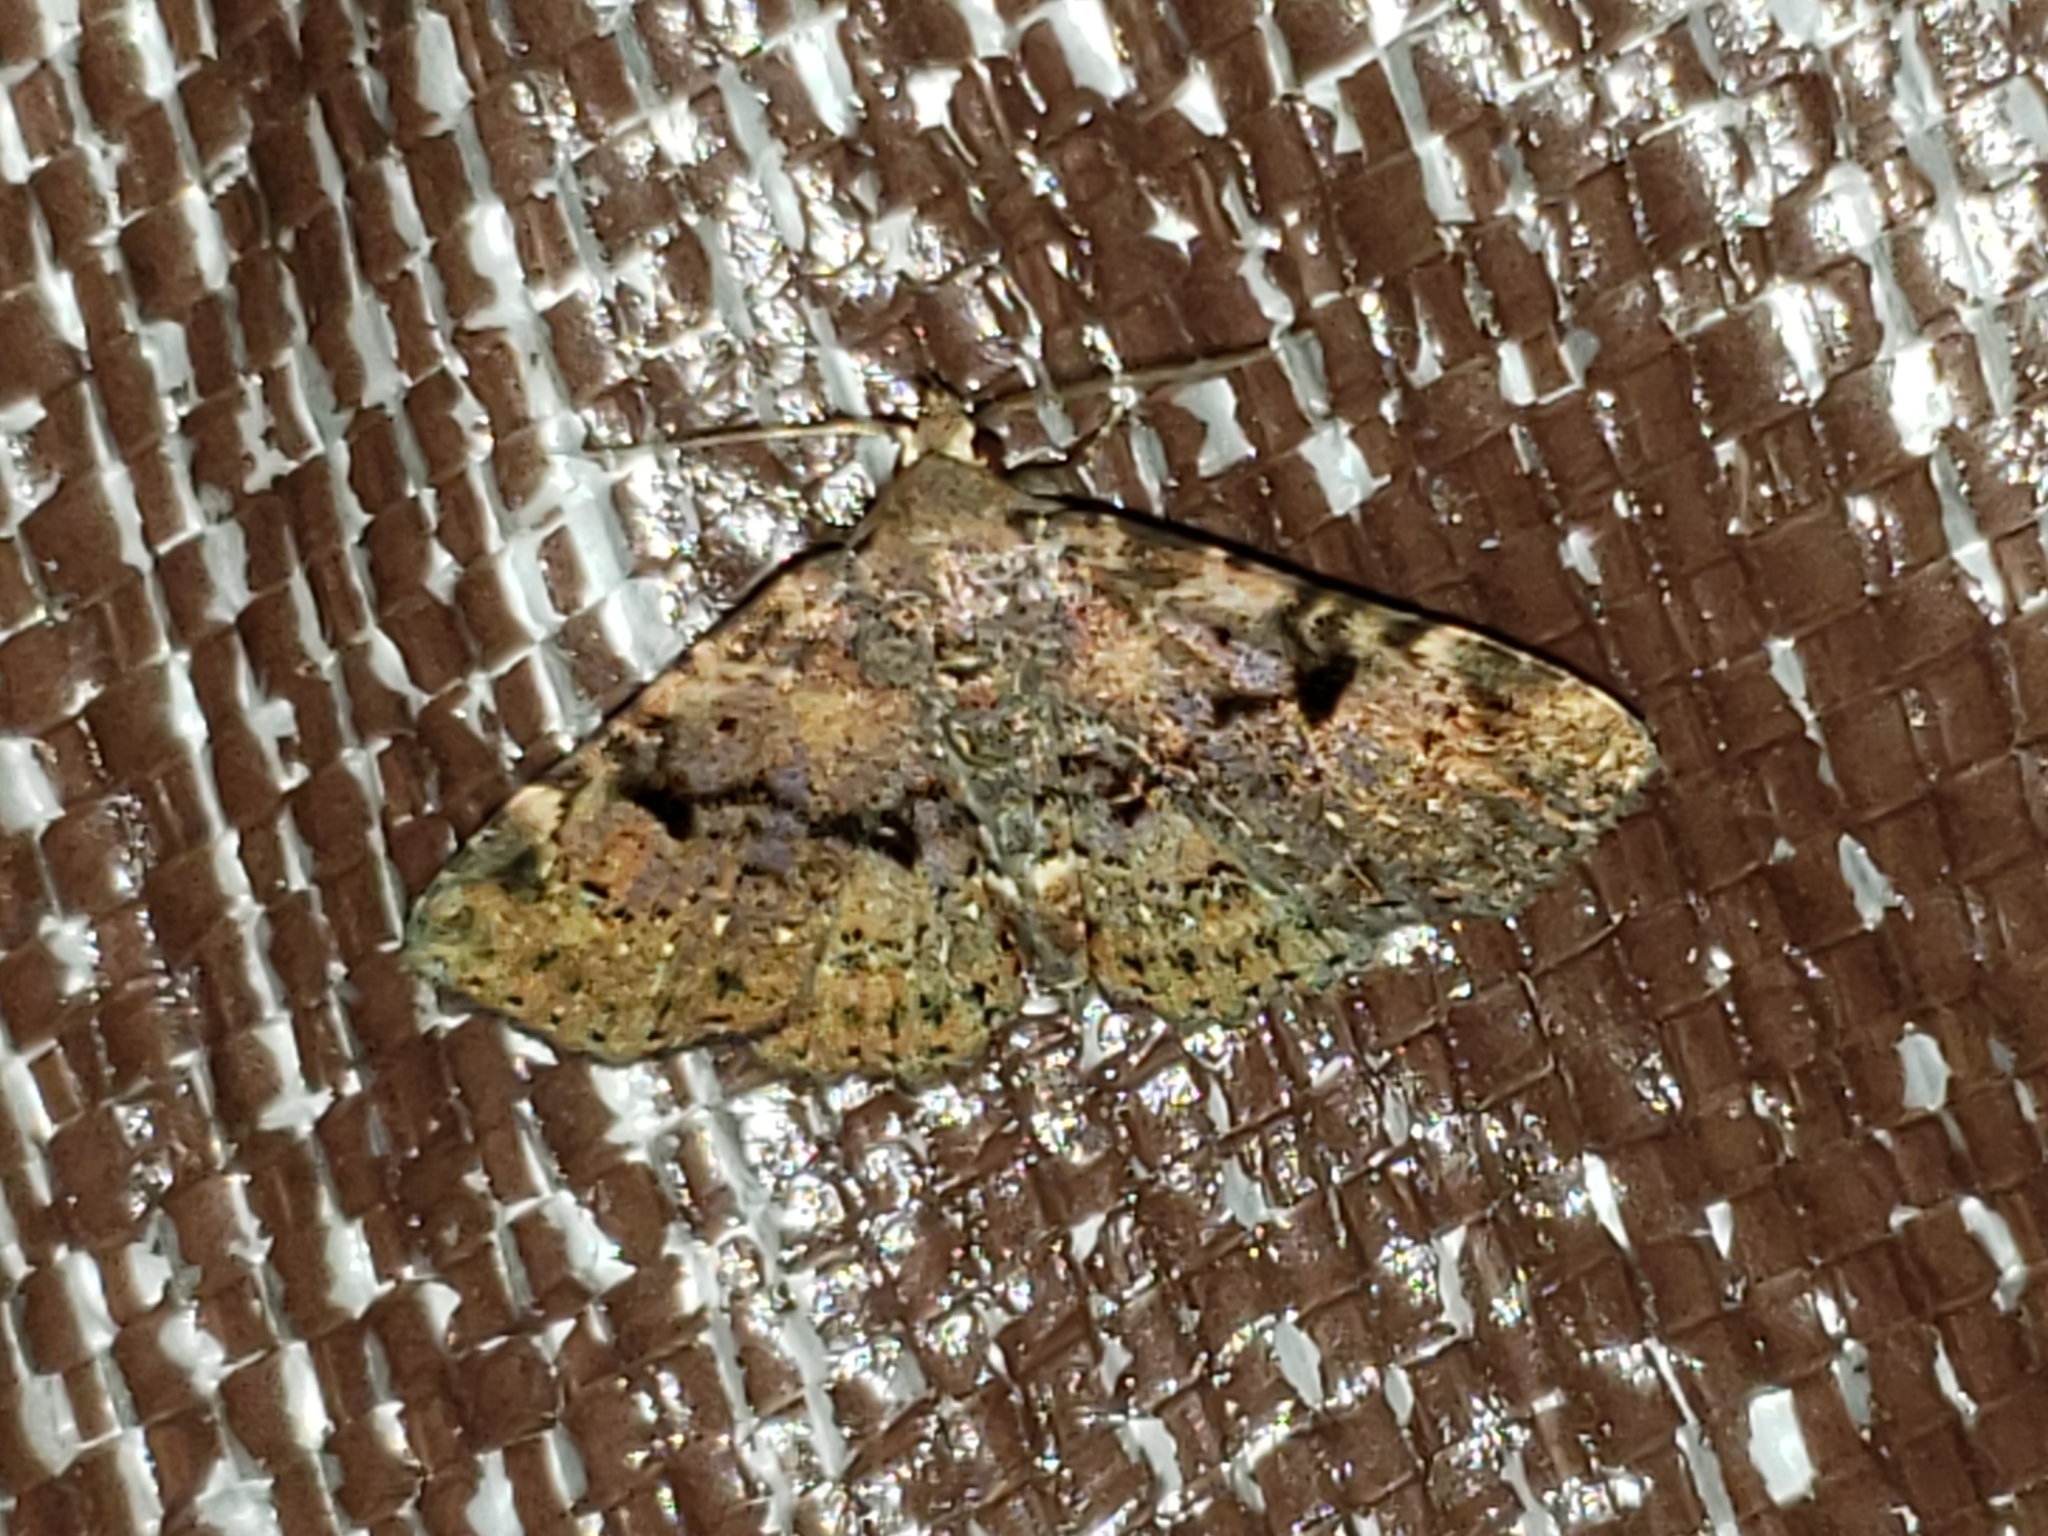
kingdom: Animalia
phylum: Arthropoda
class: Insecta
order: Lepidoptera
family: Erebidae
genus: Metalectra
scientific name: Metalectra quadrisignata
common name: Four-spotted fungus moth
